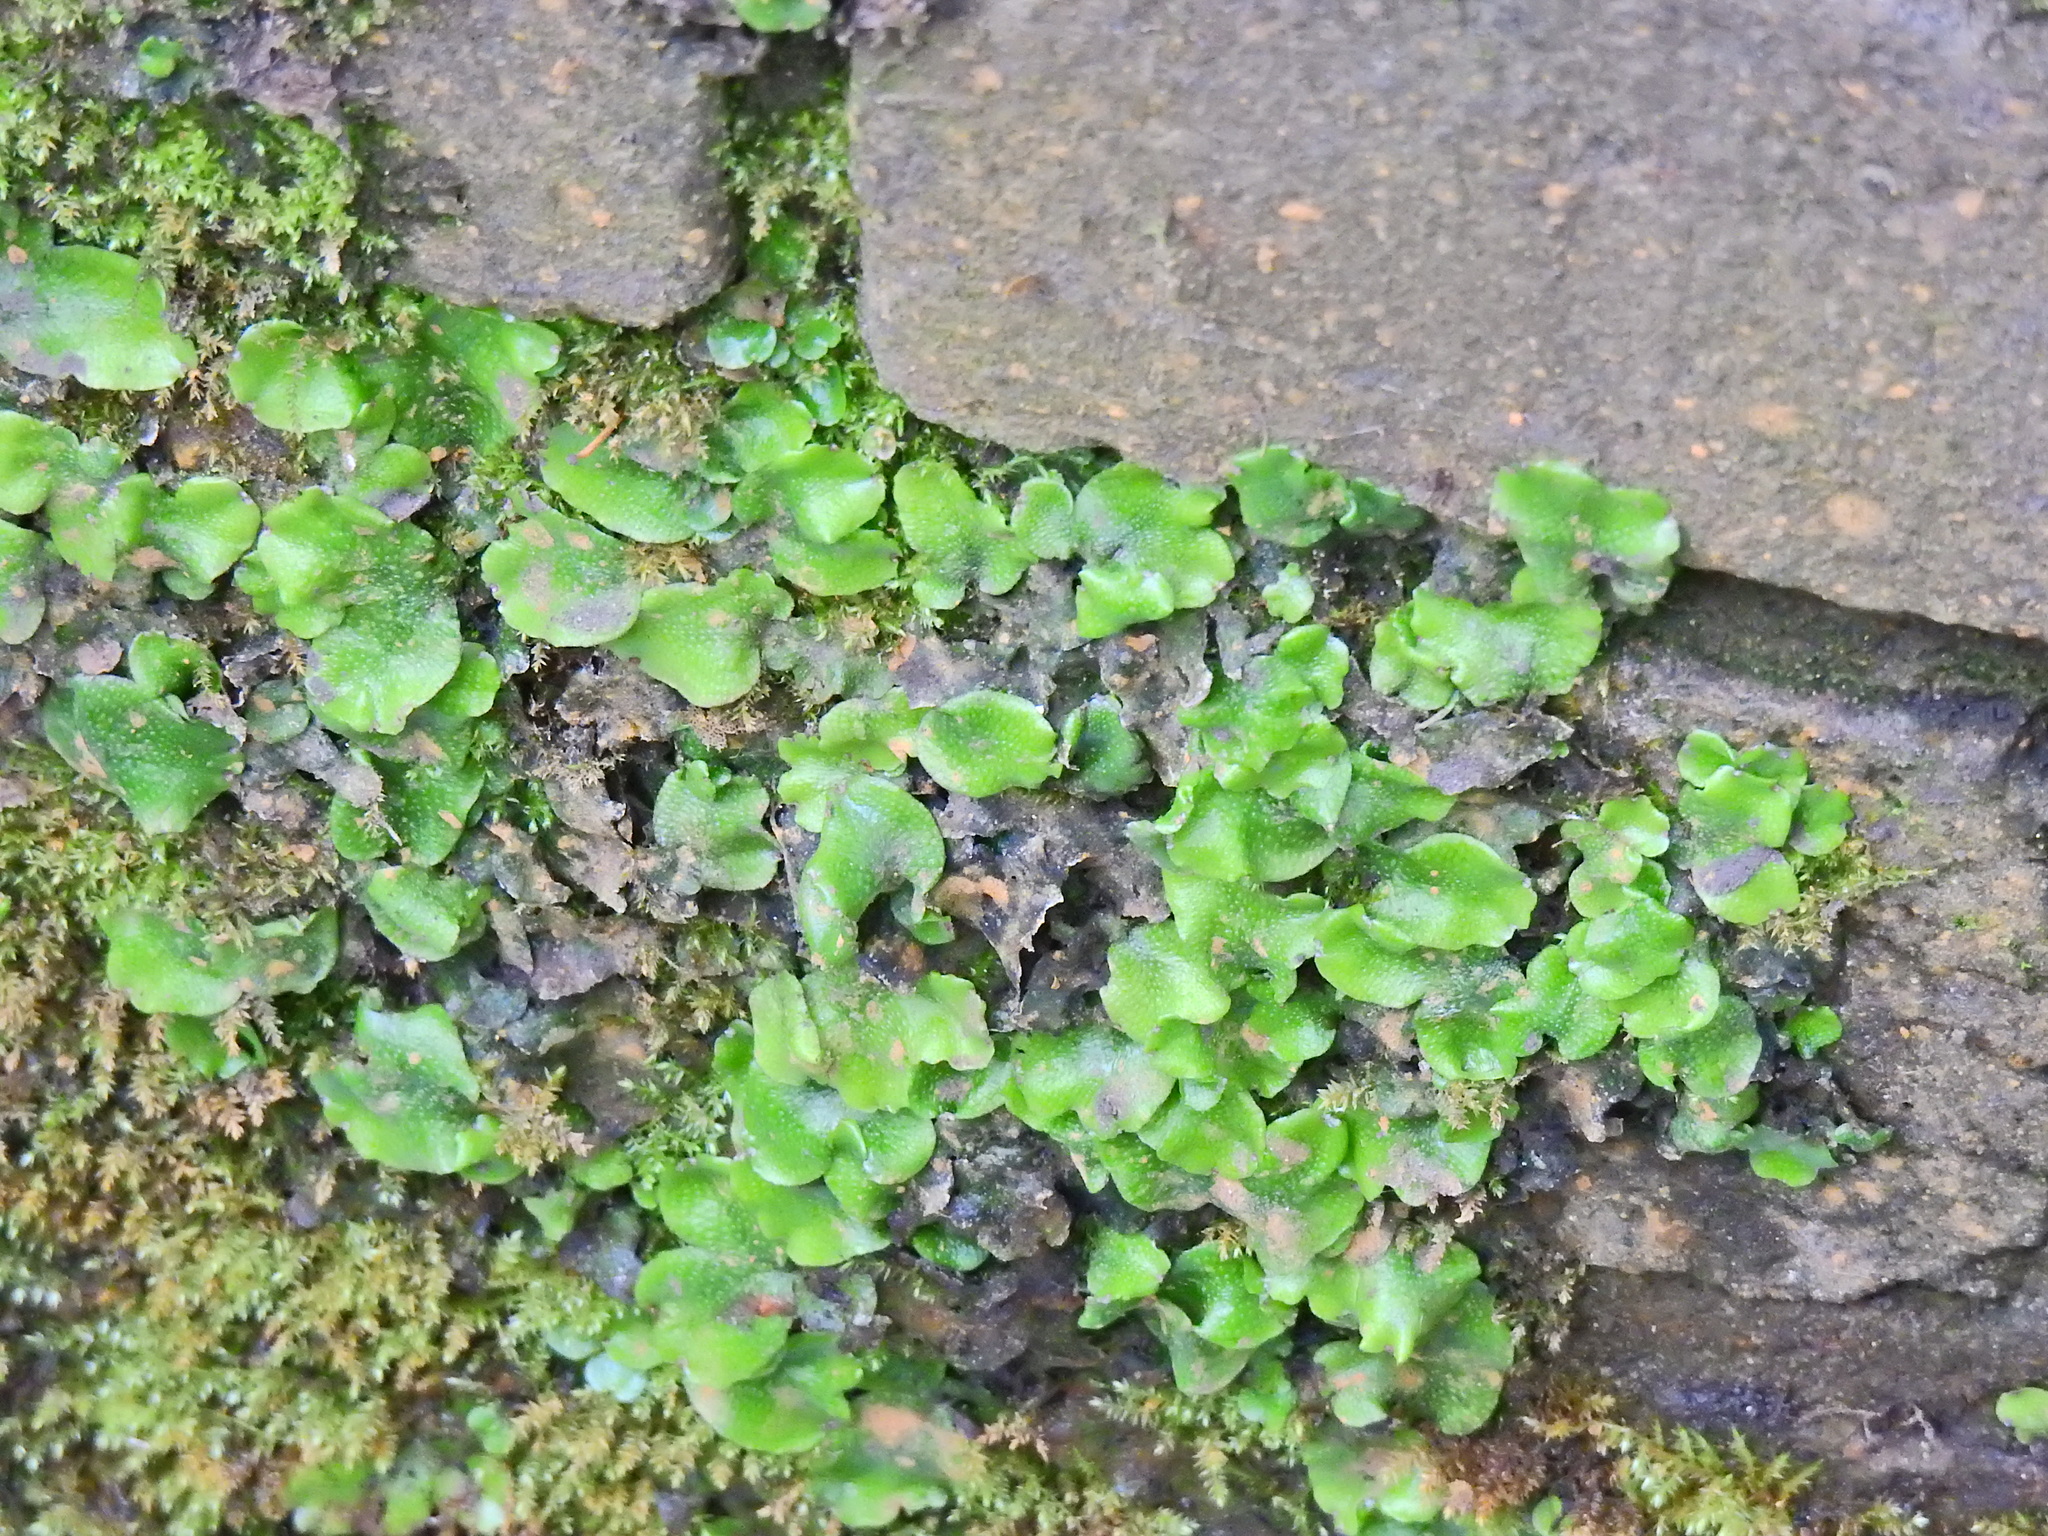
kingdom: Plantae
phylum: Marchantiophyta
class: Marchantiopsida
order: Marchantiales
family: Conocephalaceae
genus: Conocephalum
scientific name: Conocephalum conicum
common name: Great scented liverwort
